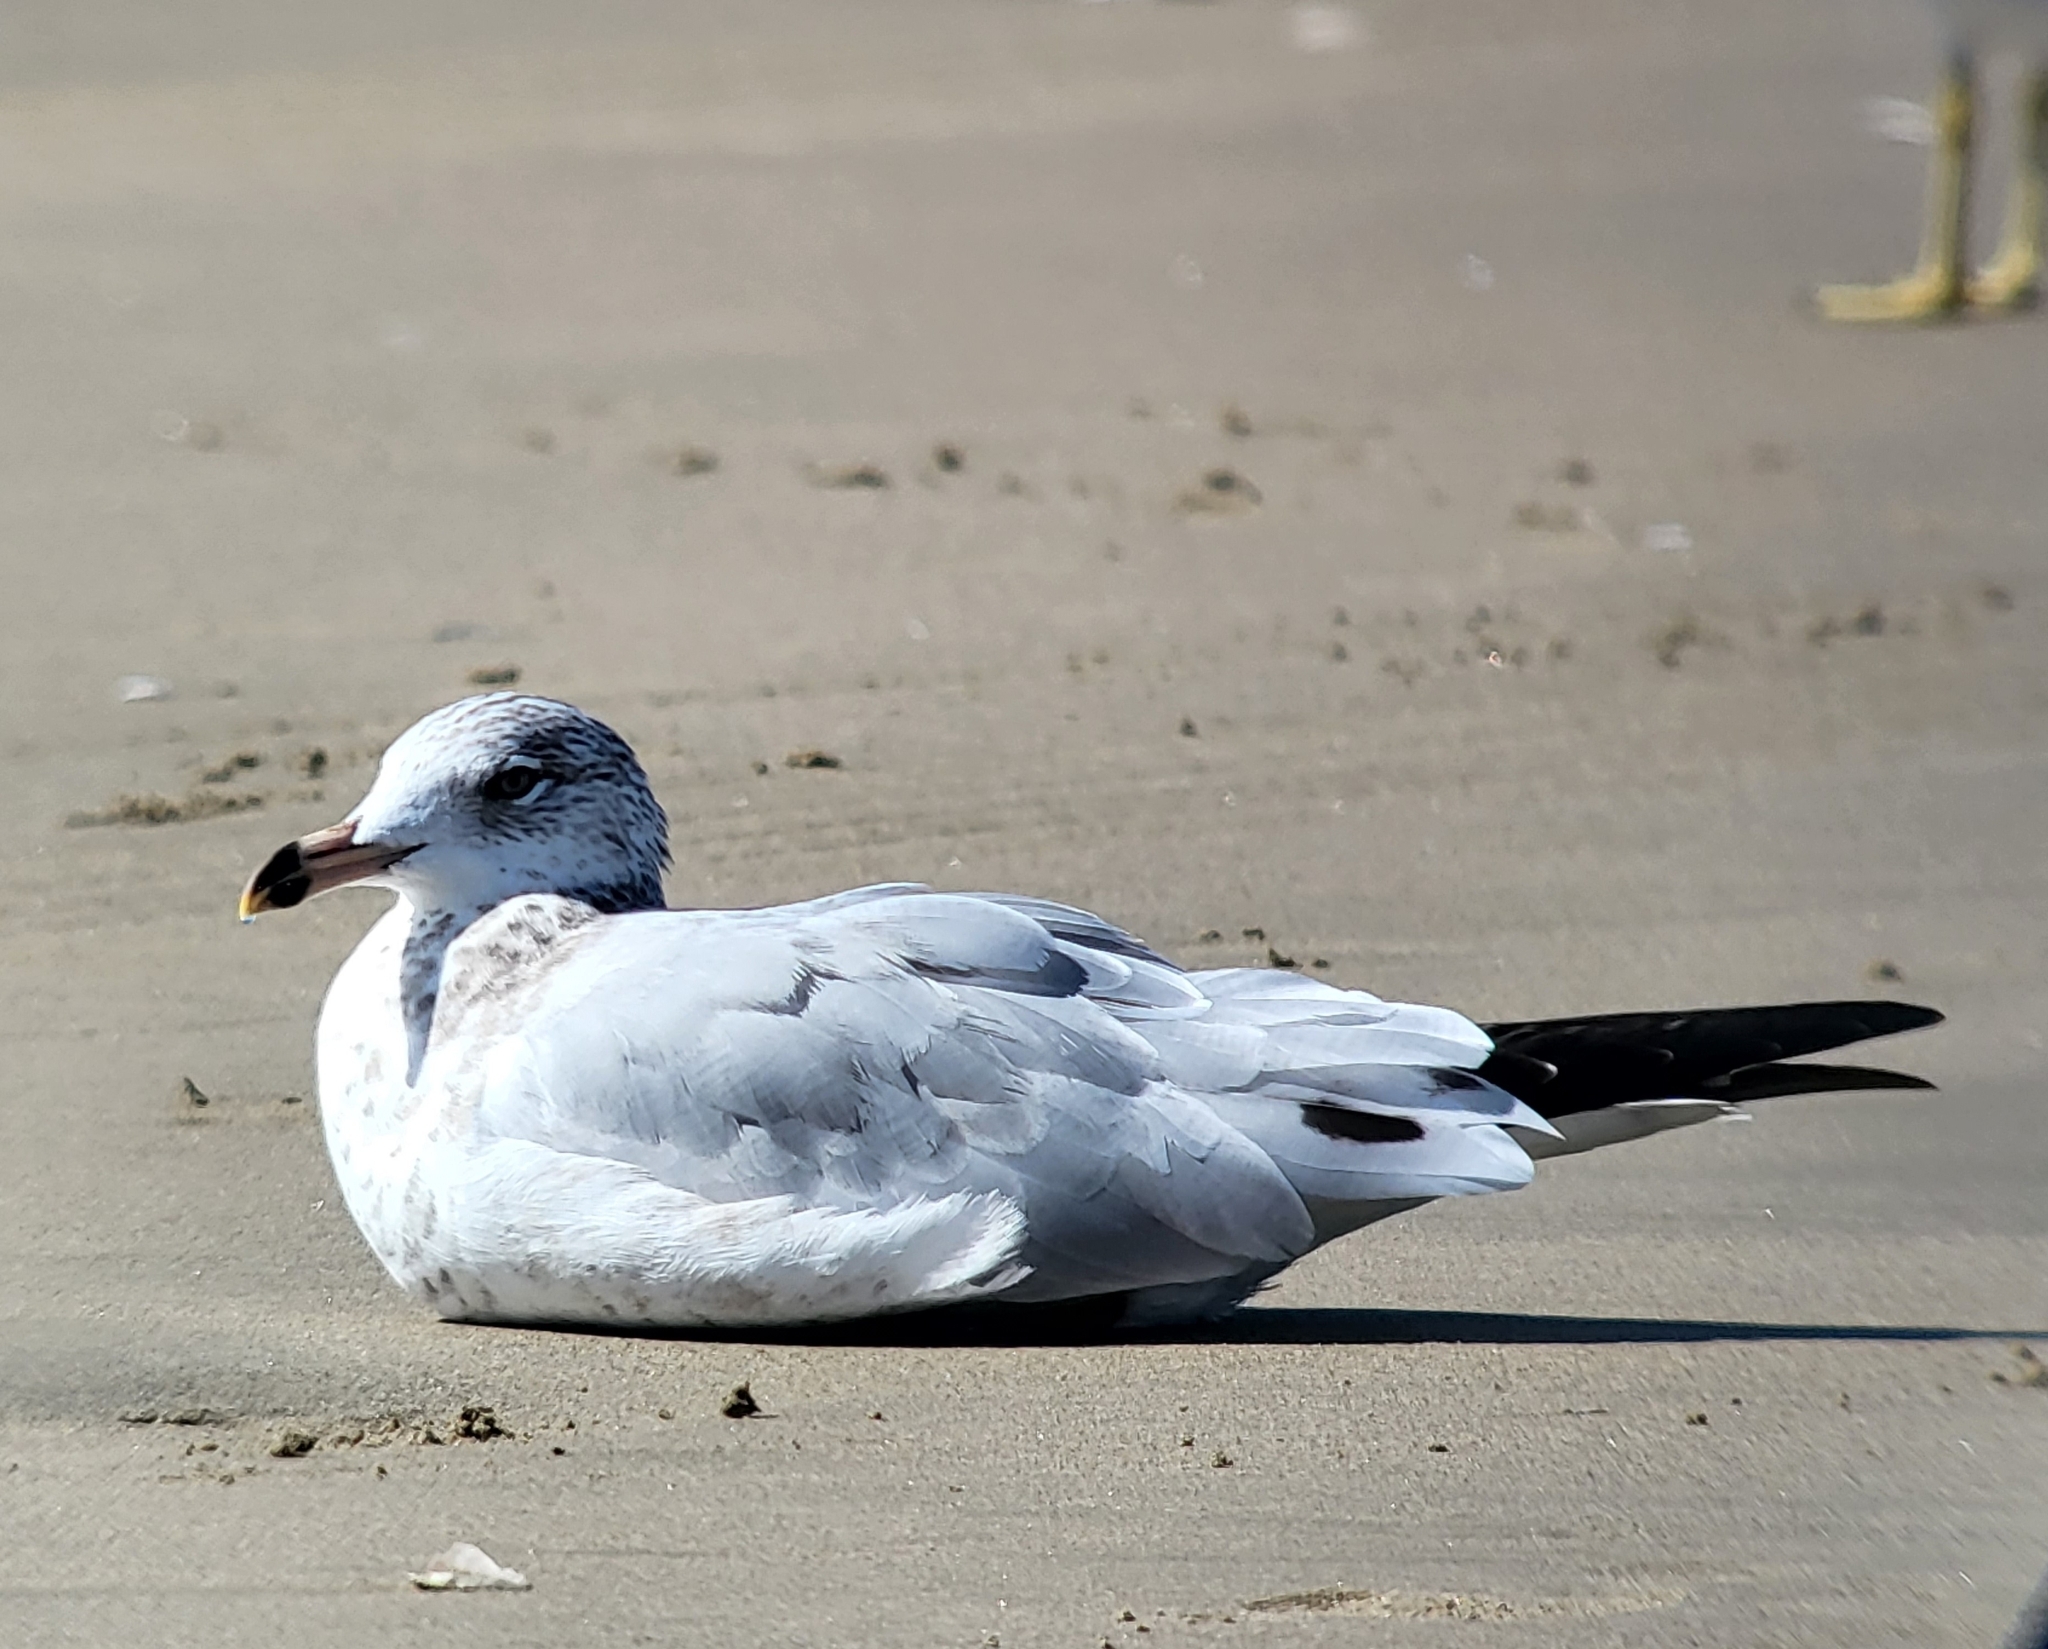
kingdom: Animalia
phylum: Chordata
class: Aves
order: Charadriiformes
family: Laridae
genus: Larus
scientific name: Larus delawarensis
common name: Ring-billed gull
